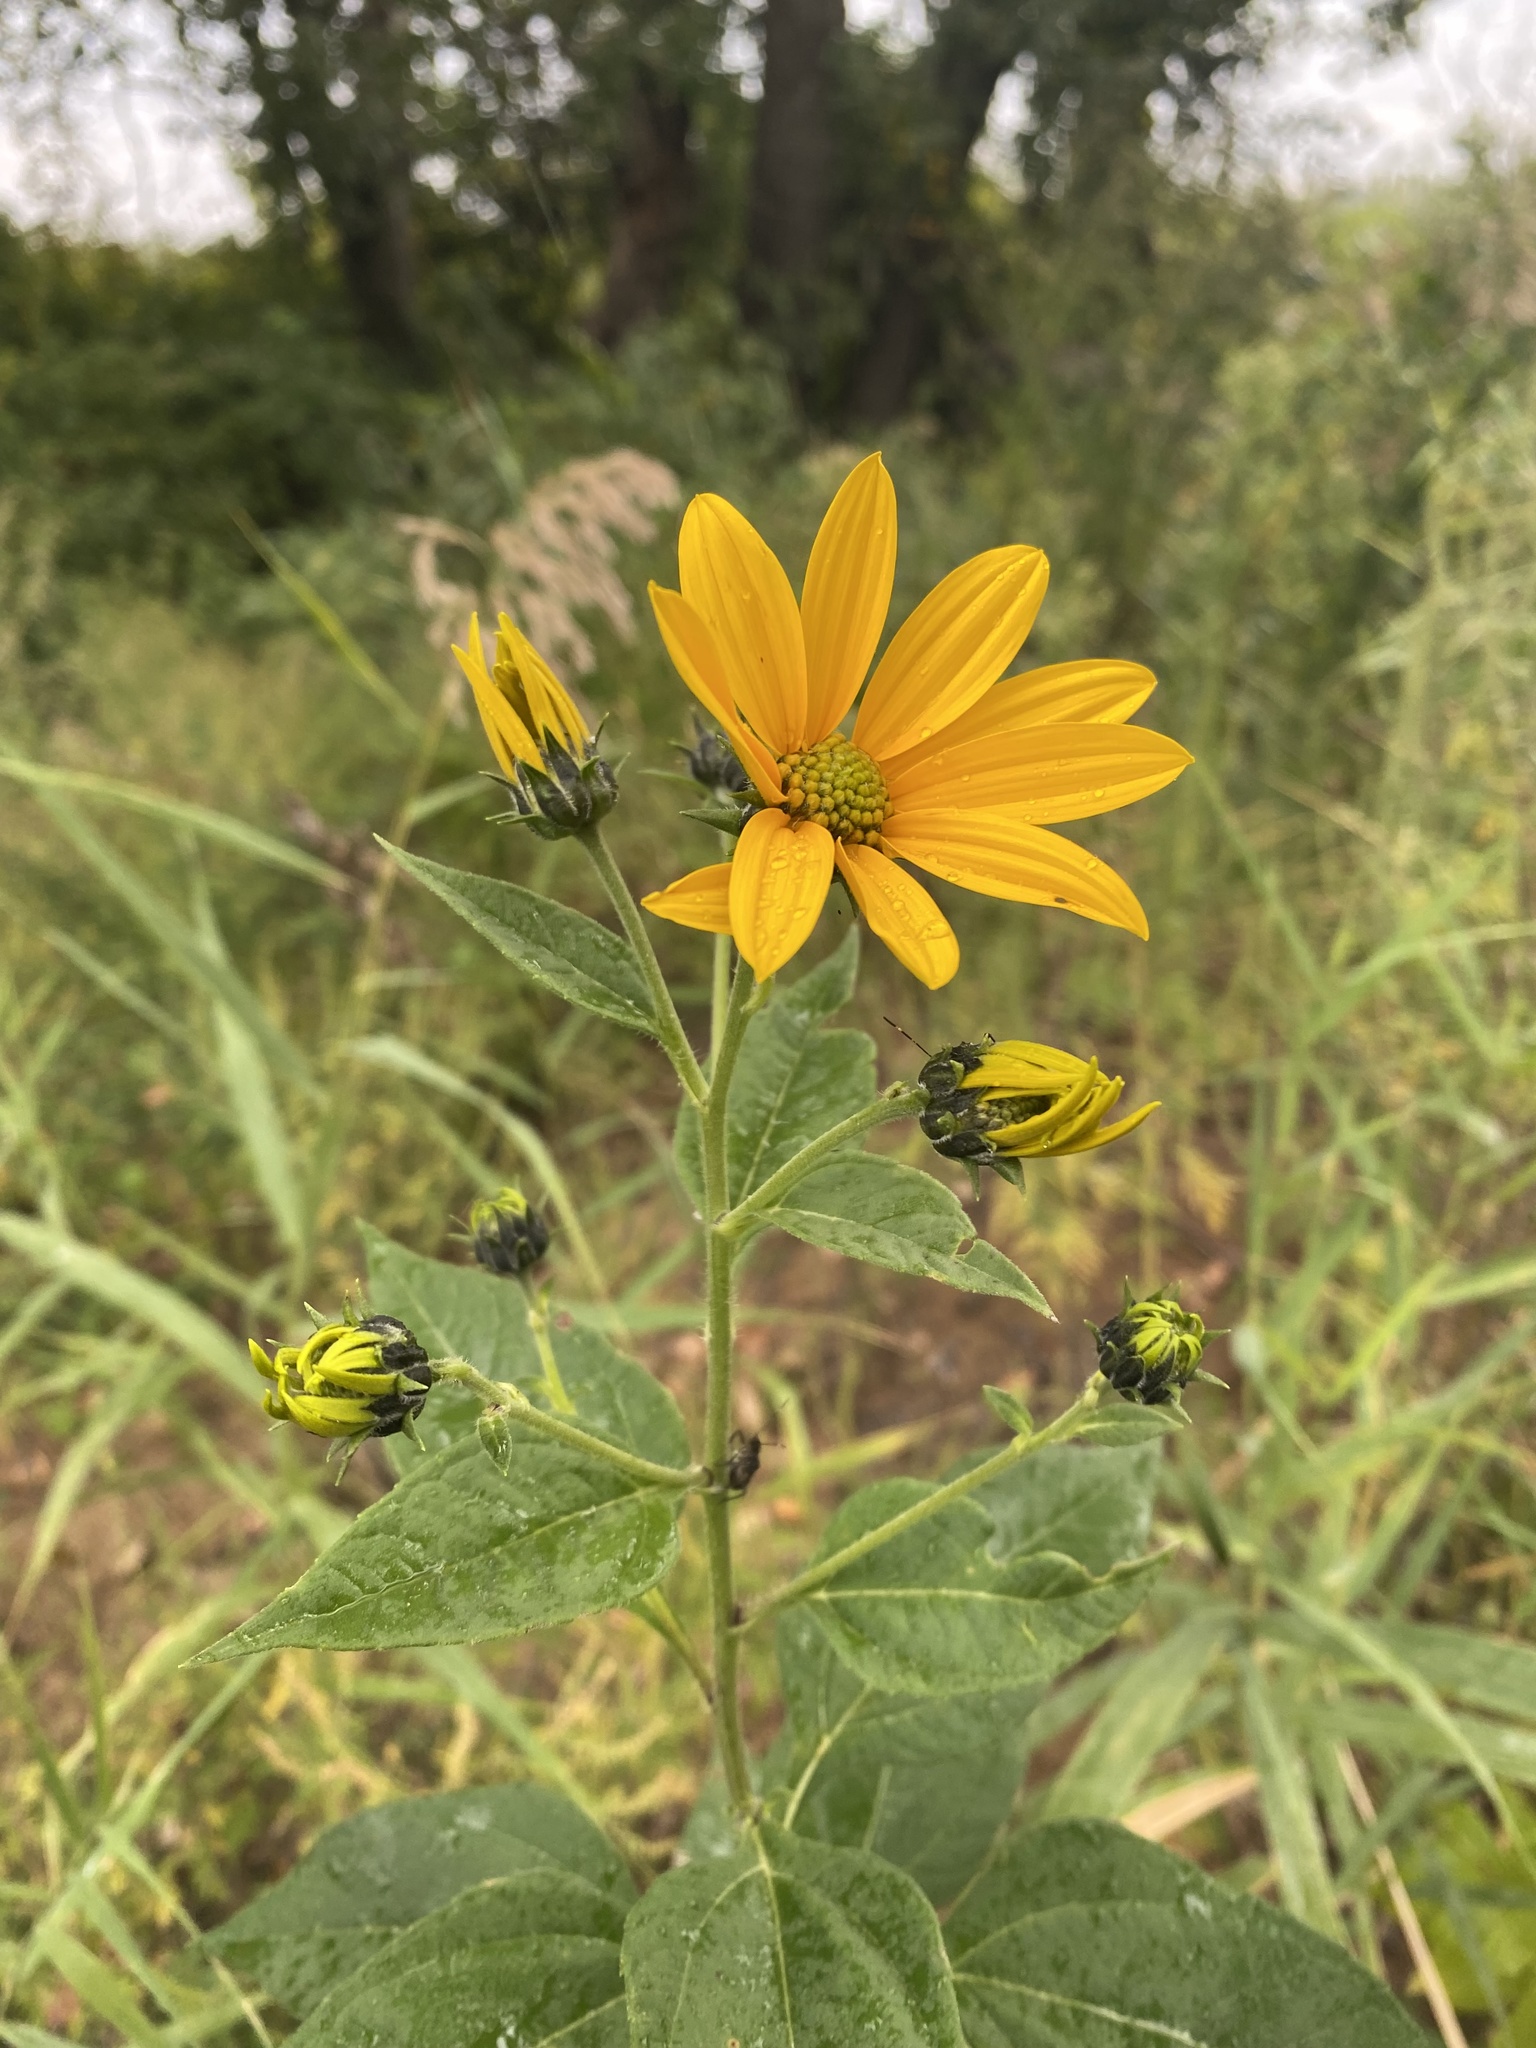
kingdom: Plantae
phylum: Tracheophyta
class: Magnoliopsida
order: Asterales
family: Asteraceae
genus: Helianthus
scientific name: Helianthus tuberosus
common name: Jerusalem artichoke
